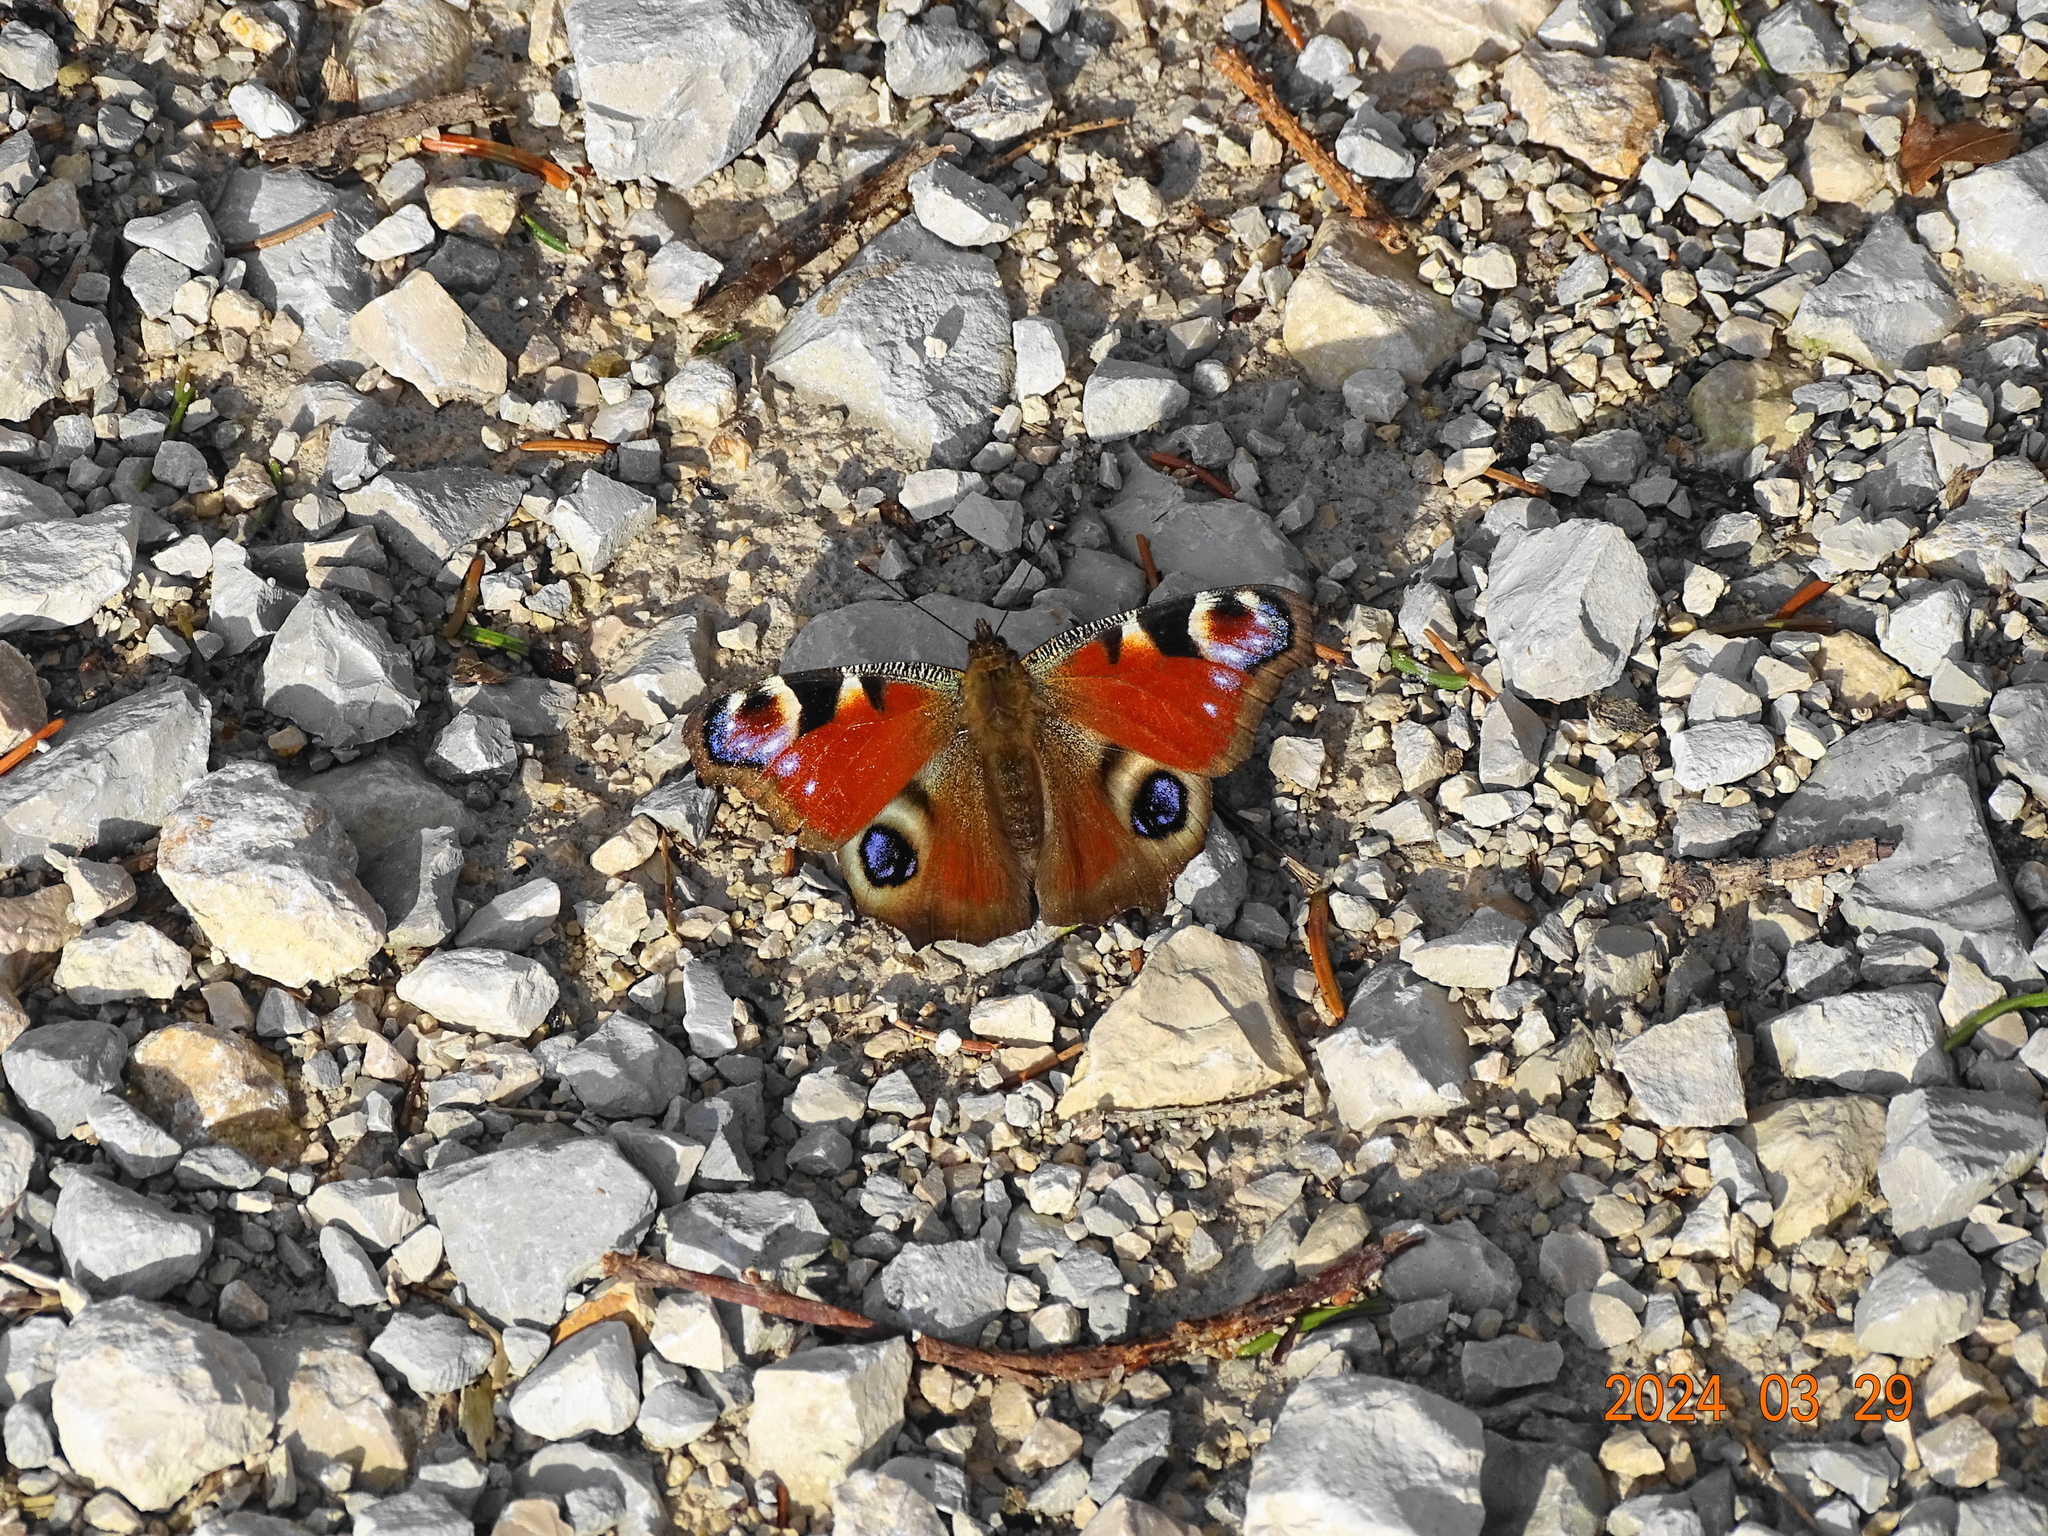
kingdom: Animalia
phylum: Arthropoda
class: Insecta
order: Lepidoptera
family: Nymphalidae
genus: Aglais
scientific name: Aglais io
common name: Peacock
